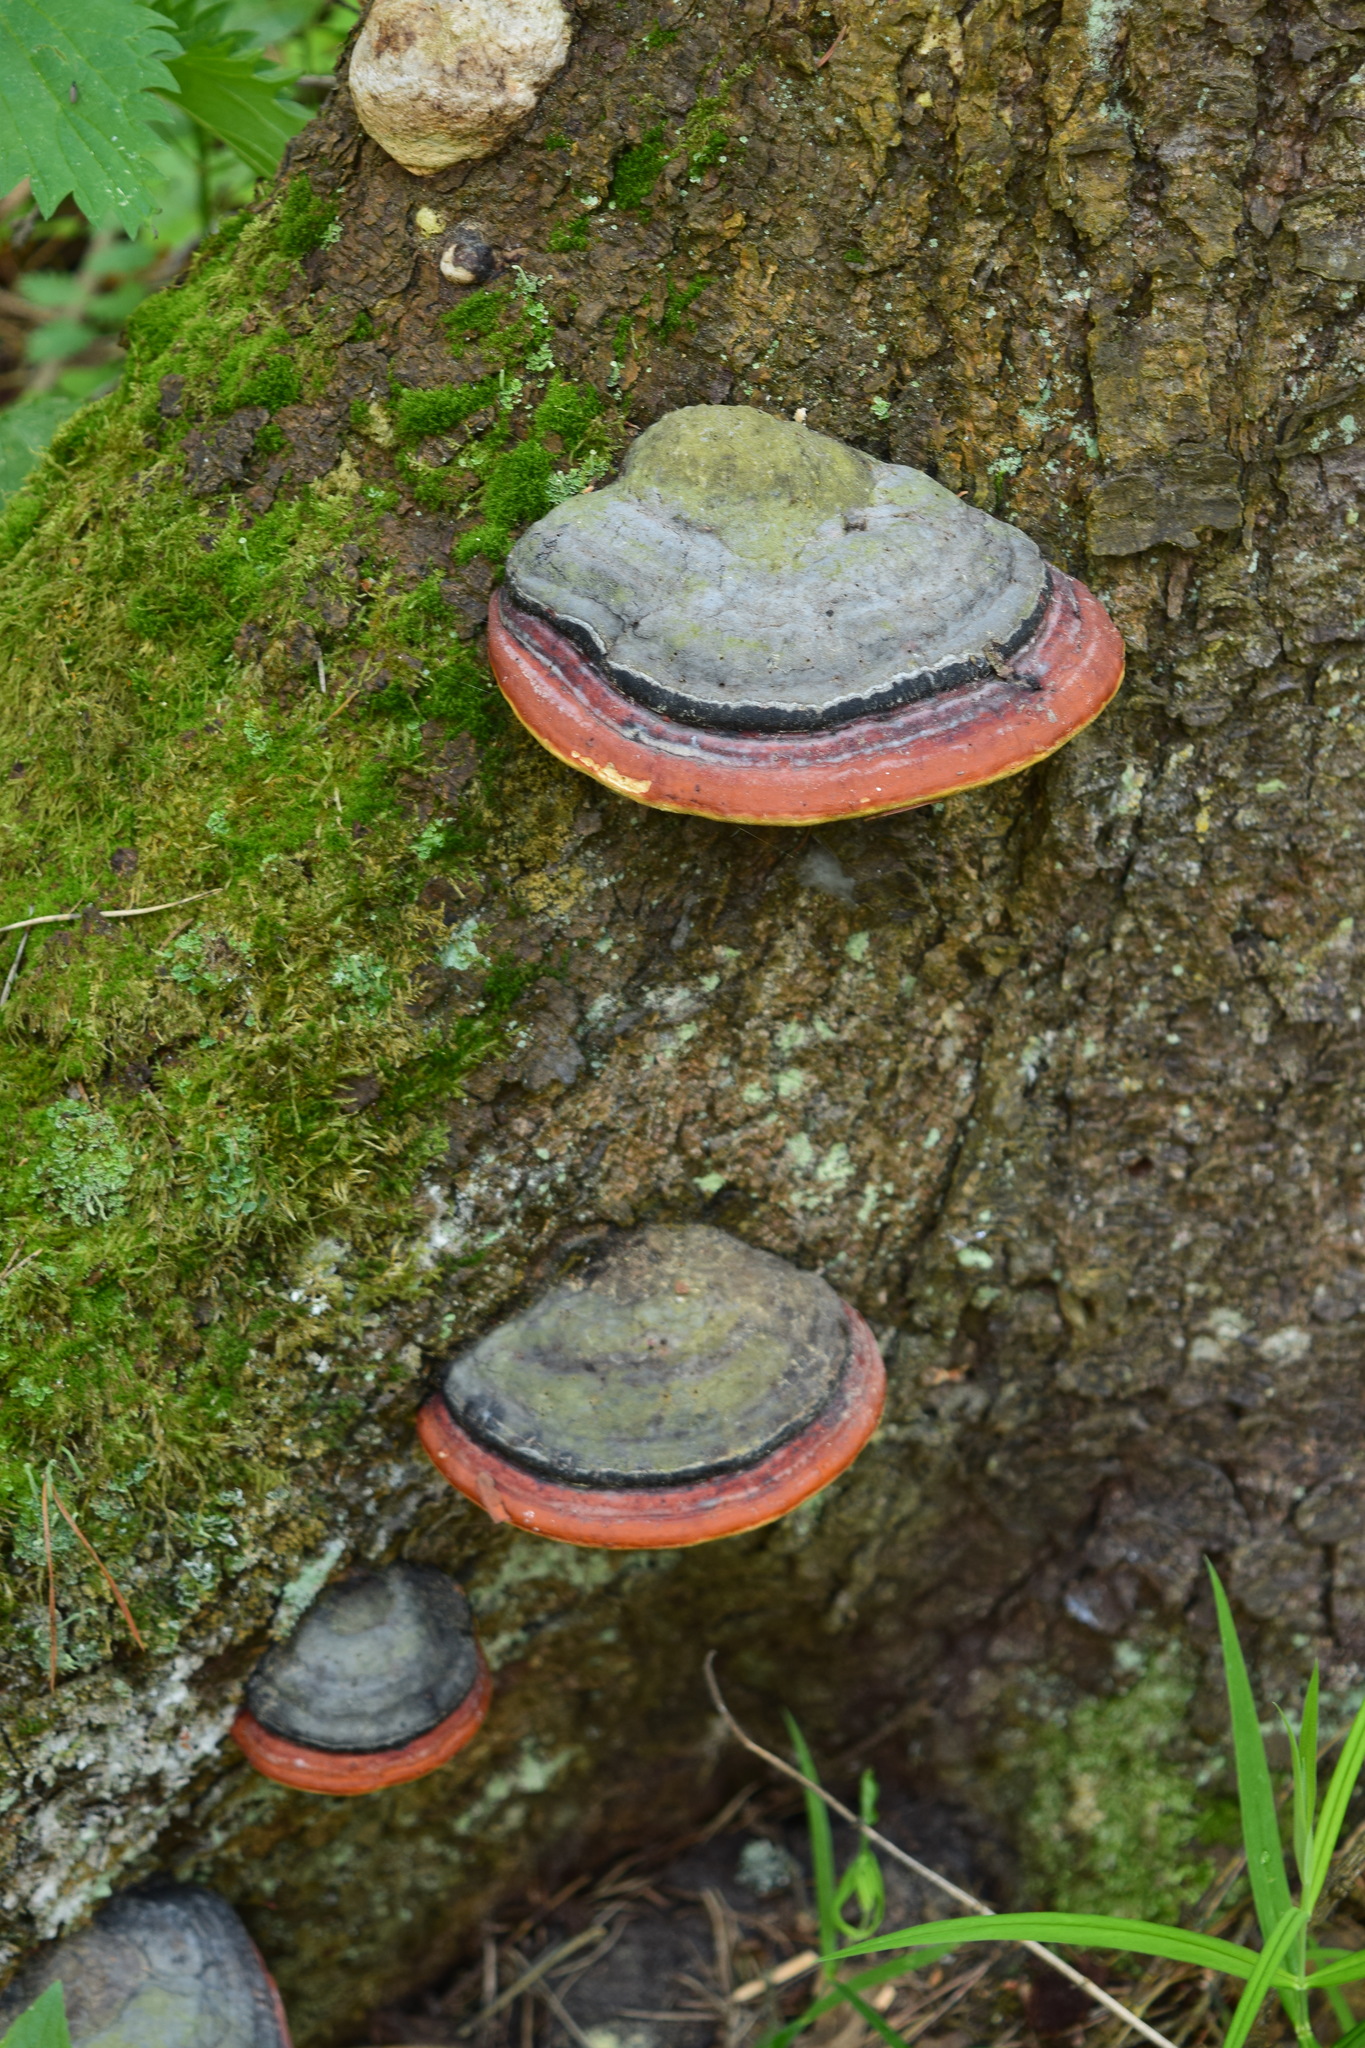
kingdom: Fungi
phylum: Basidiomycota
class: Agaricomycetes
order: Polyporales
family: Fomitopsidaceae
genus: Fomitopsis
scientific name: Fomitopsis pinicola
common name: Red-belted bracket
